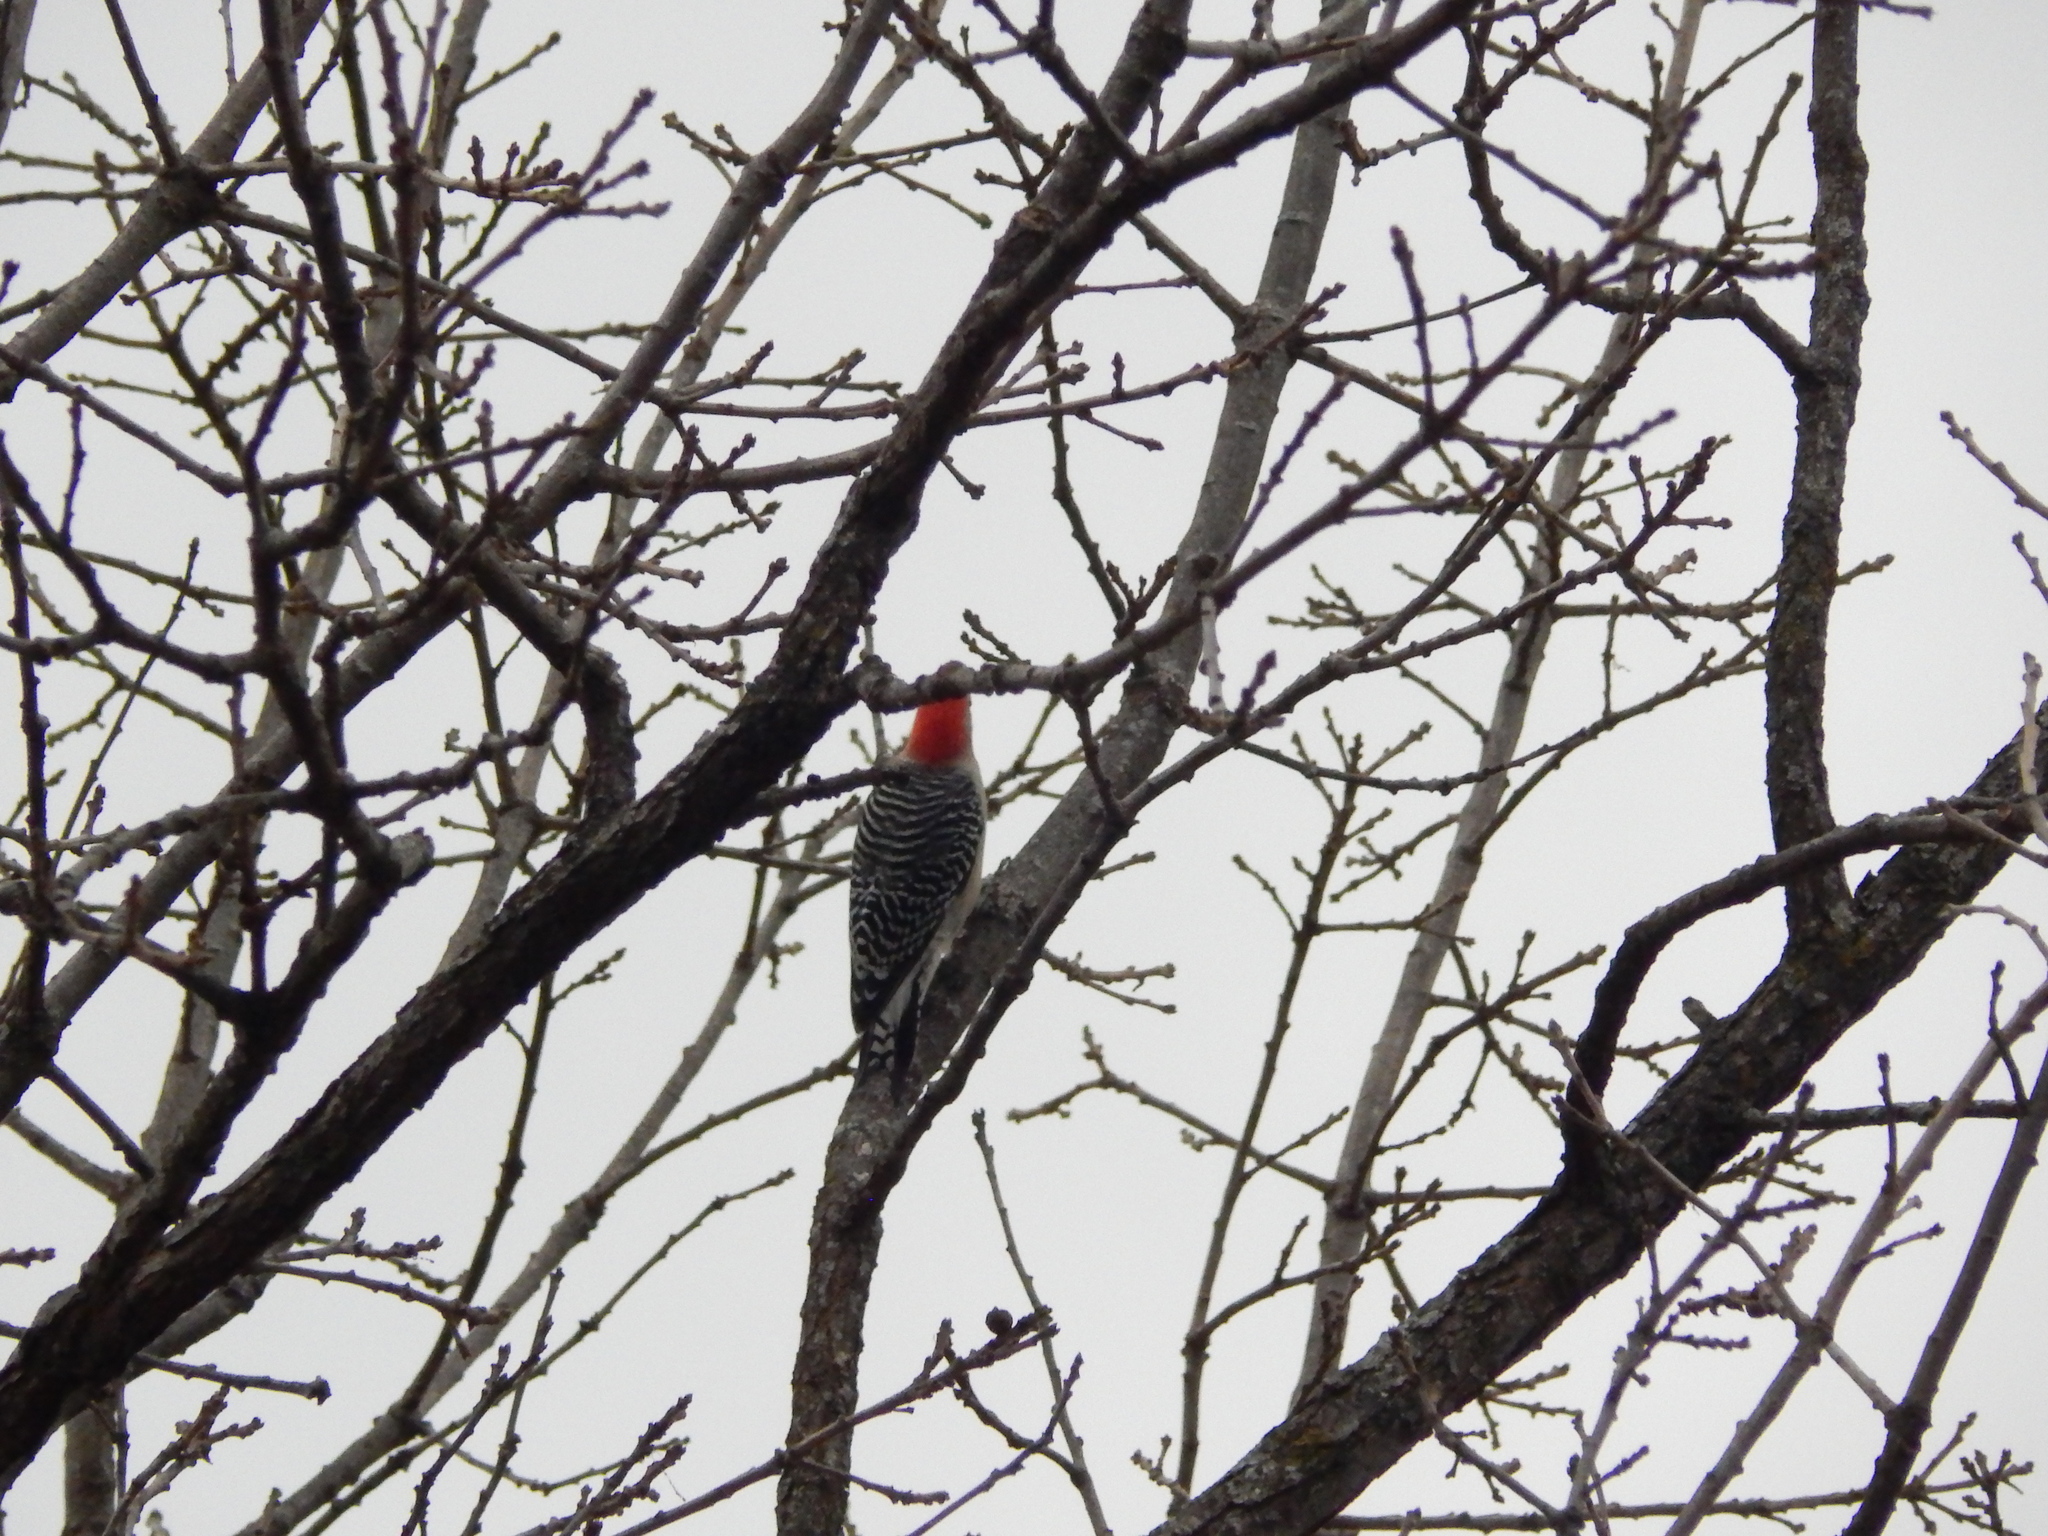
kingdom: Animalia
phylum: Chordata
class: Aves
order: Piciformes
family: Picidae
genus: Melanerpes
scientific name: Melanerpes carolinus
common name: Red-bellied woodpecker
